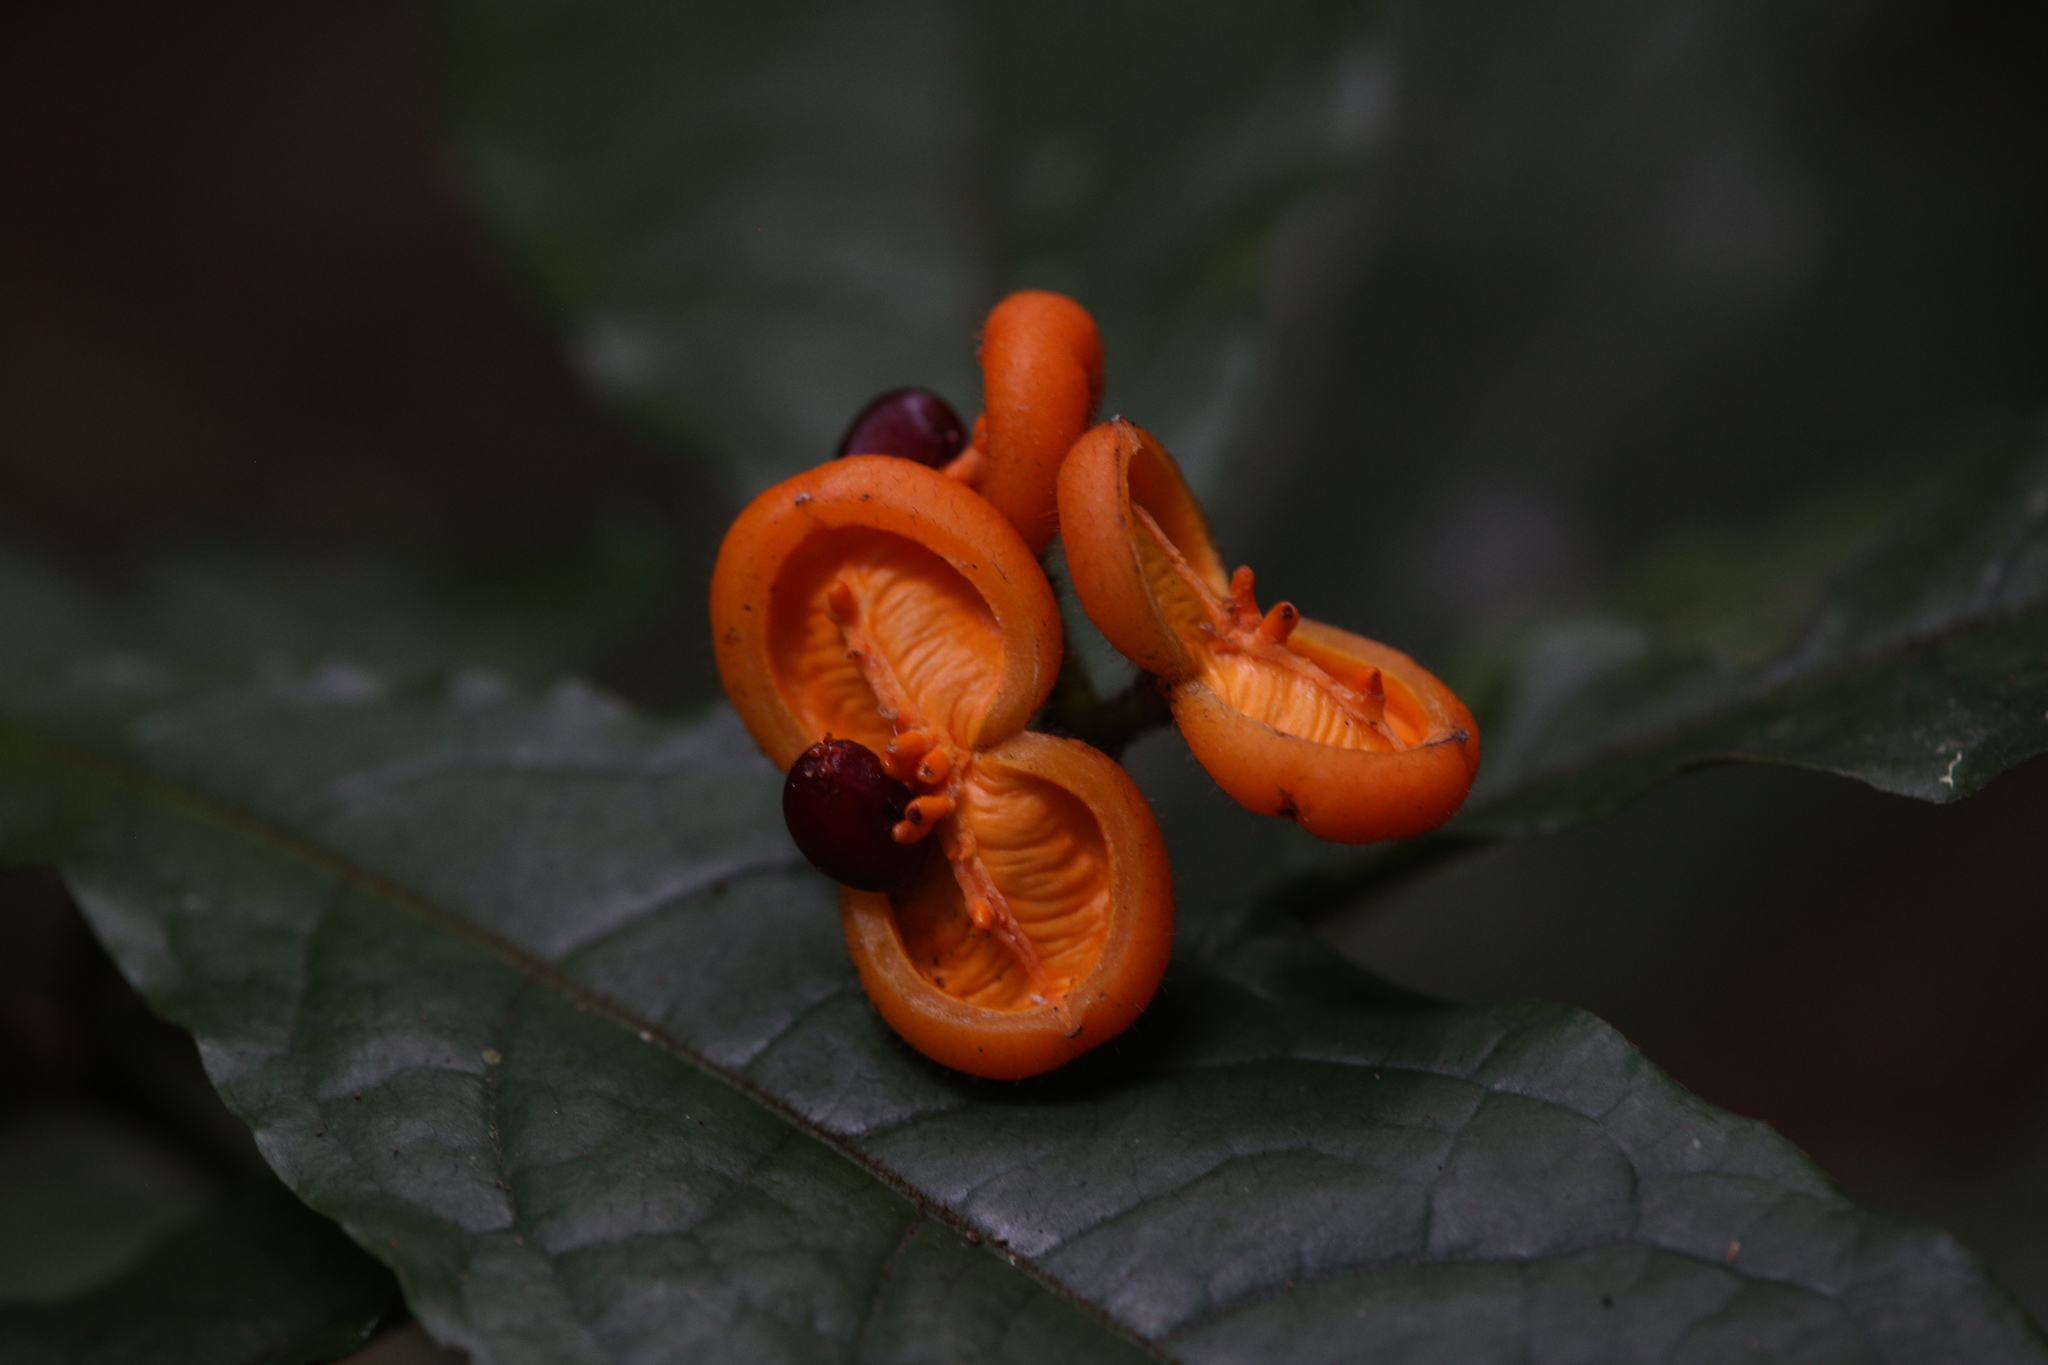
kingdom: Plantae
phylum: Tracheophyta
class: Magnoliopsida
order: Apiales
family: Pittosporaceae
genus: Pittosporum
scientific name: Pittosporum rubiginosum
